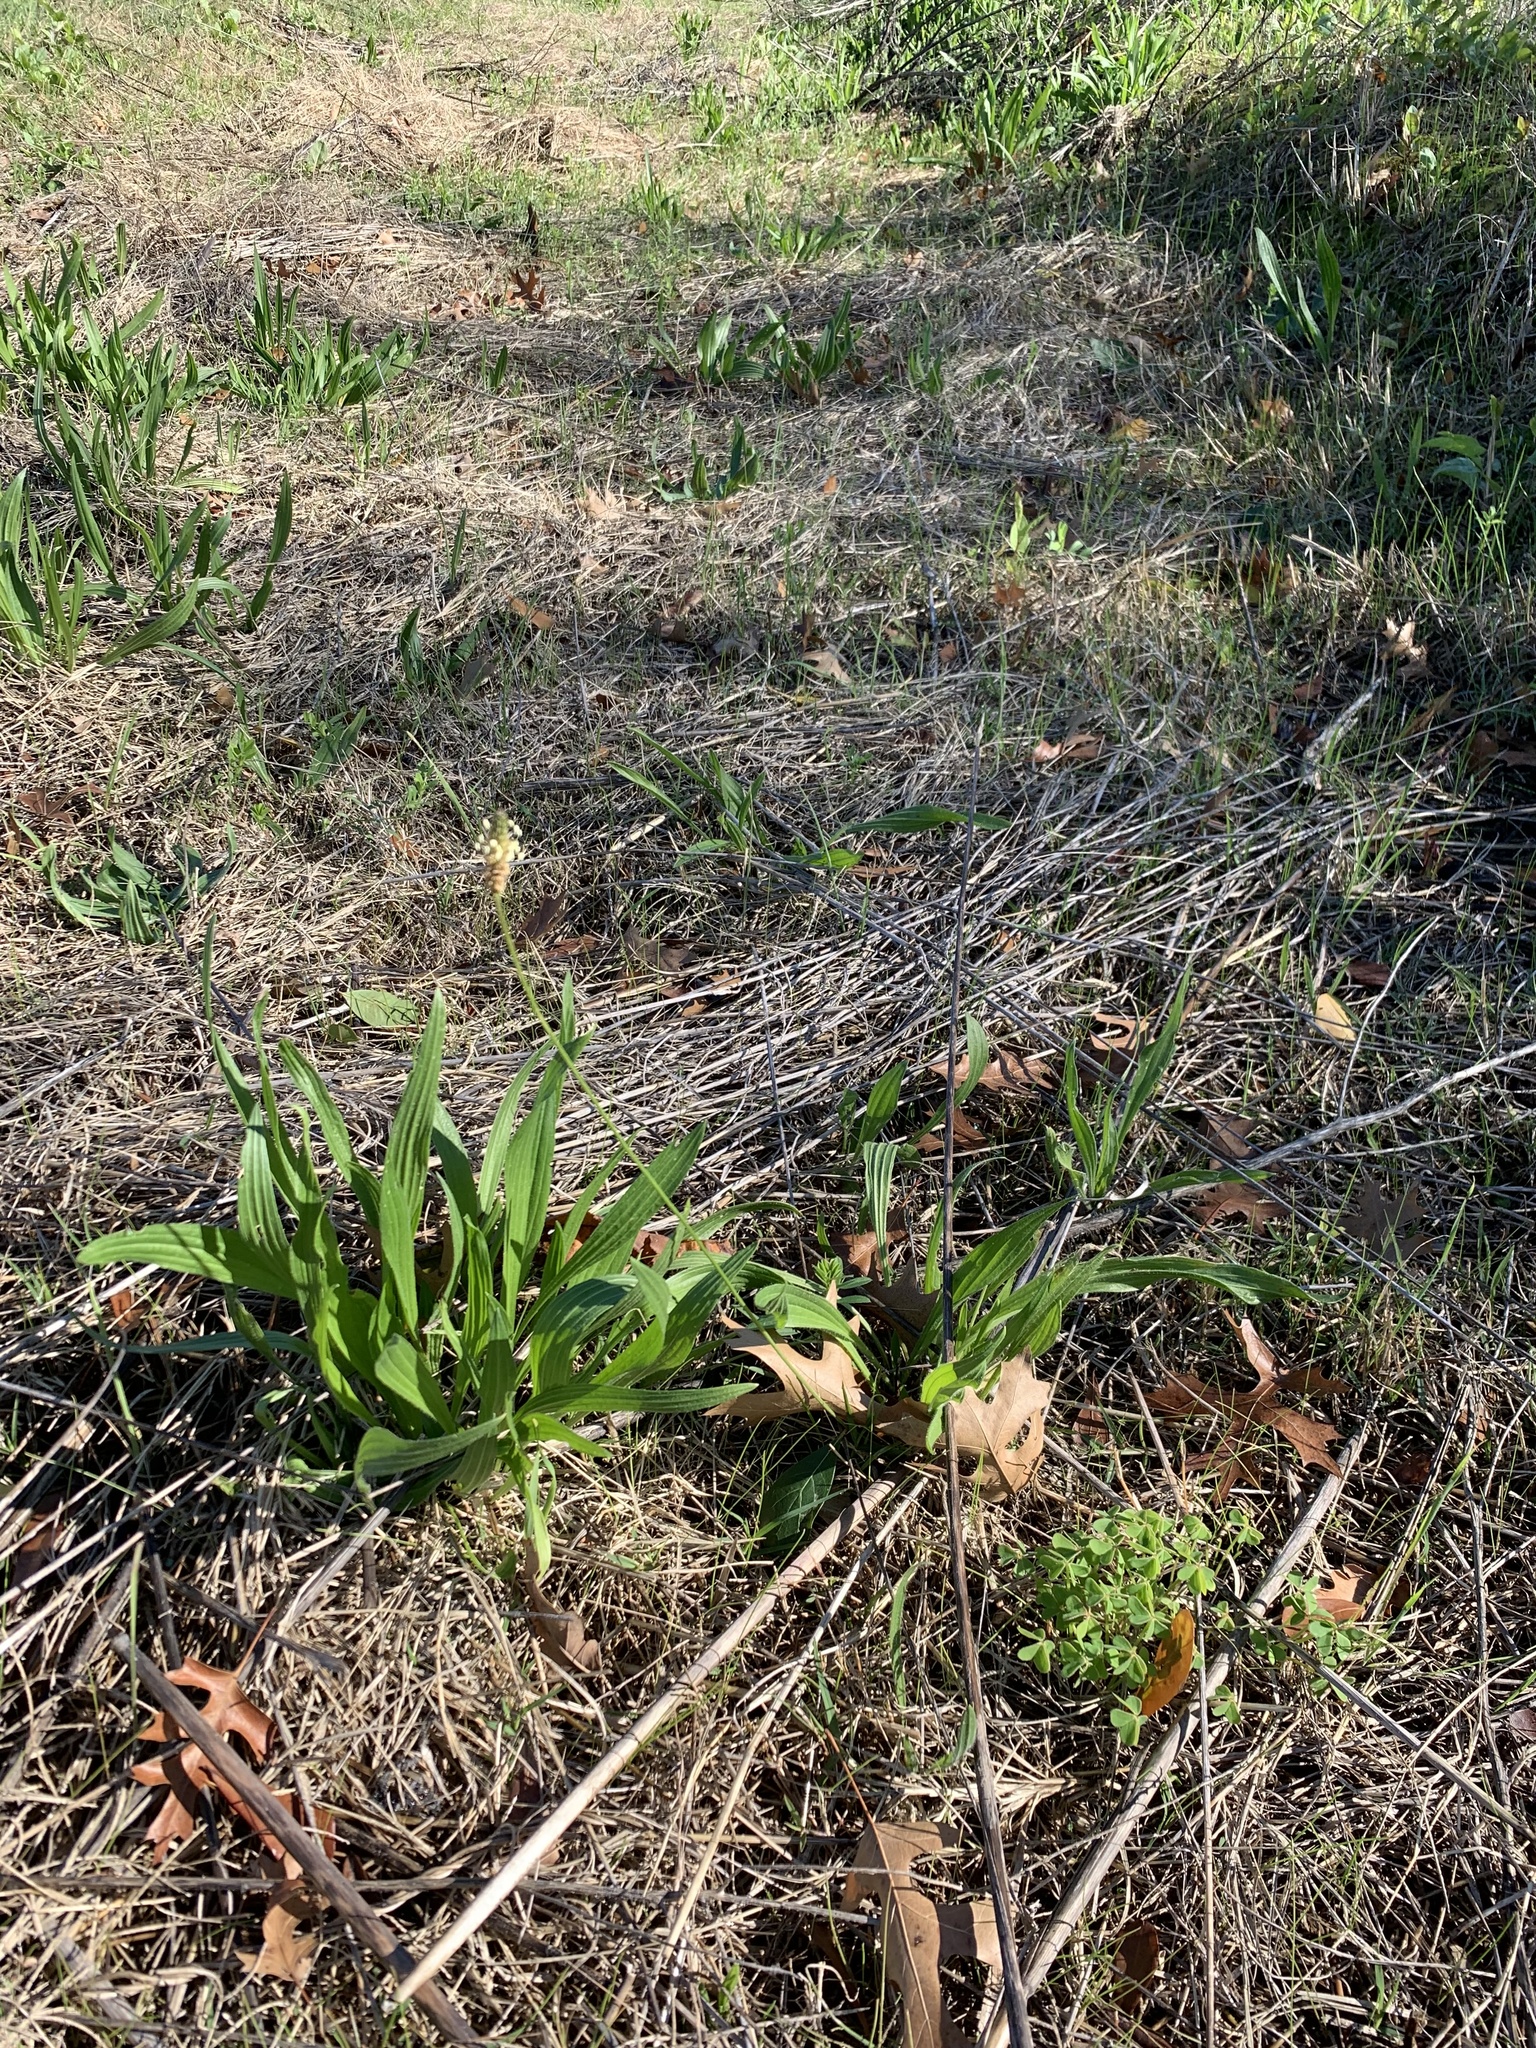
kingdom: Plantae
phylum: Tracheophyta
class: Magnoliopsida
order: Lamiales
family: Plantaginaceae
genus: Plantago
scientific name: Plantago lanceolata
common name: Ribwort plantain
